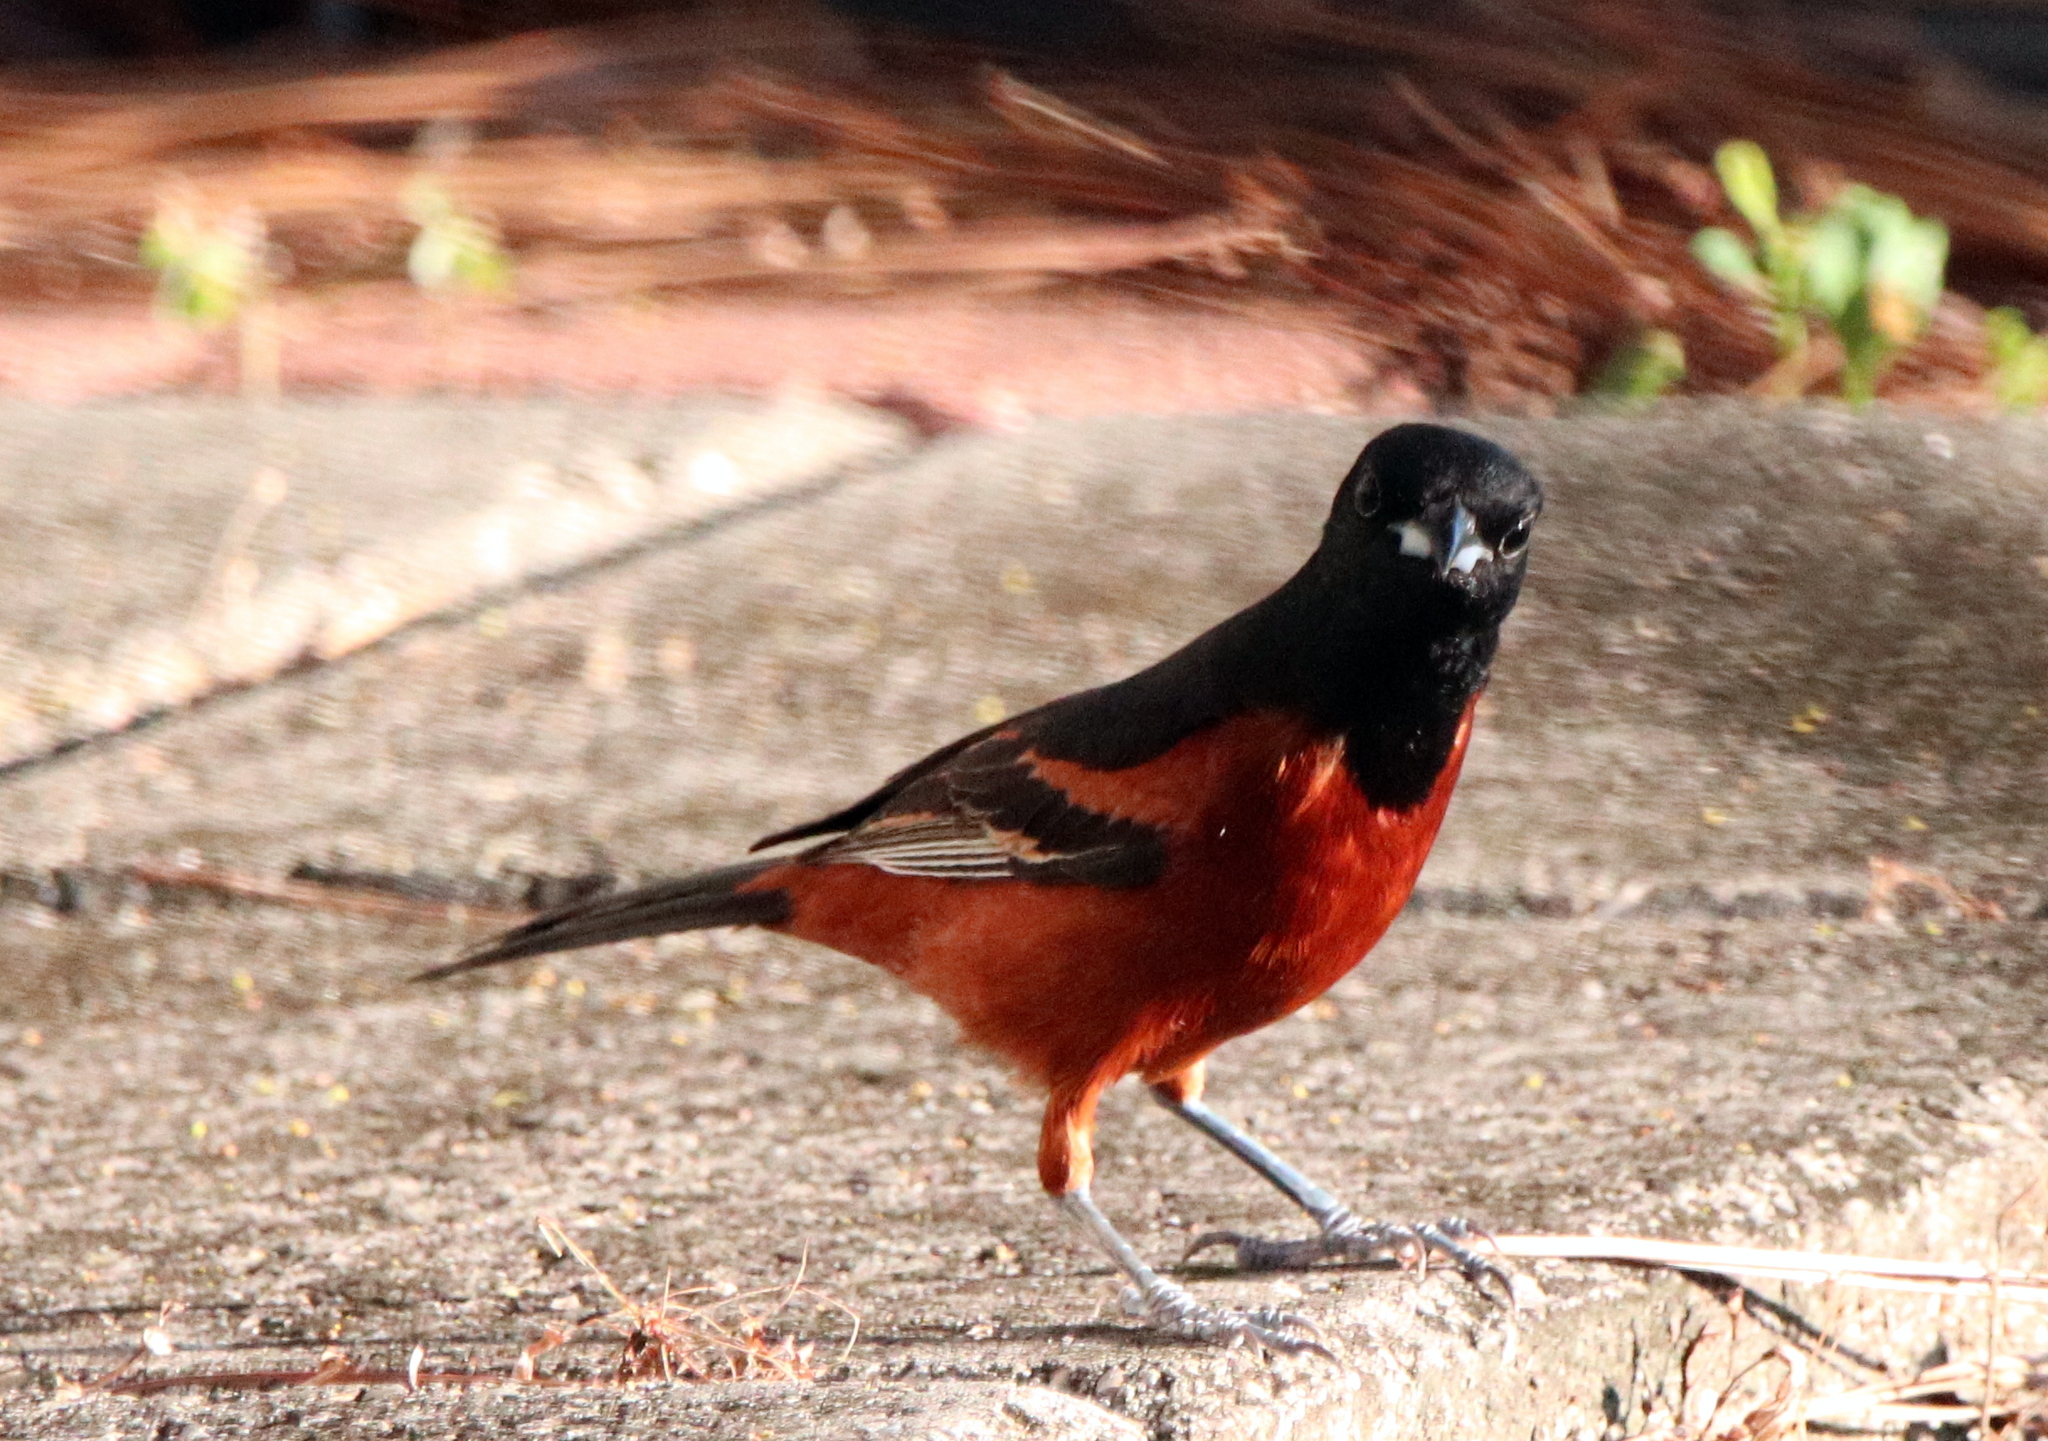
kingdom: Animalia
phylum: Chordata
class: Aves
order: Passeriformes
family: Icteridae
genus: Icterus
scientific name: Icterus spurius
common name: Orchard oriole
